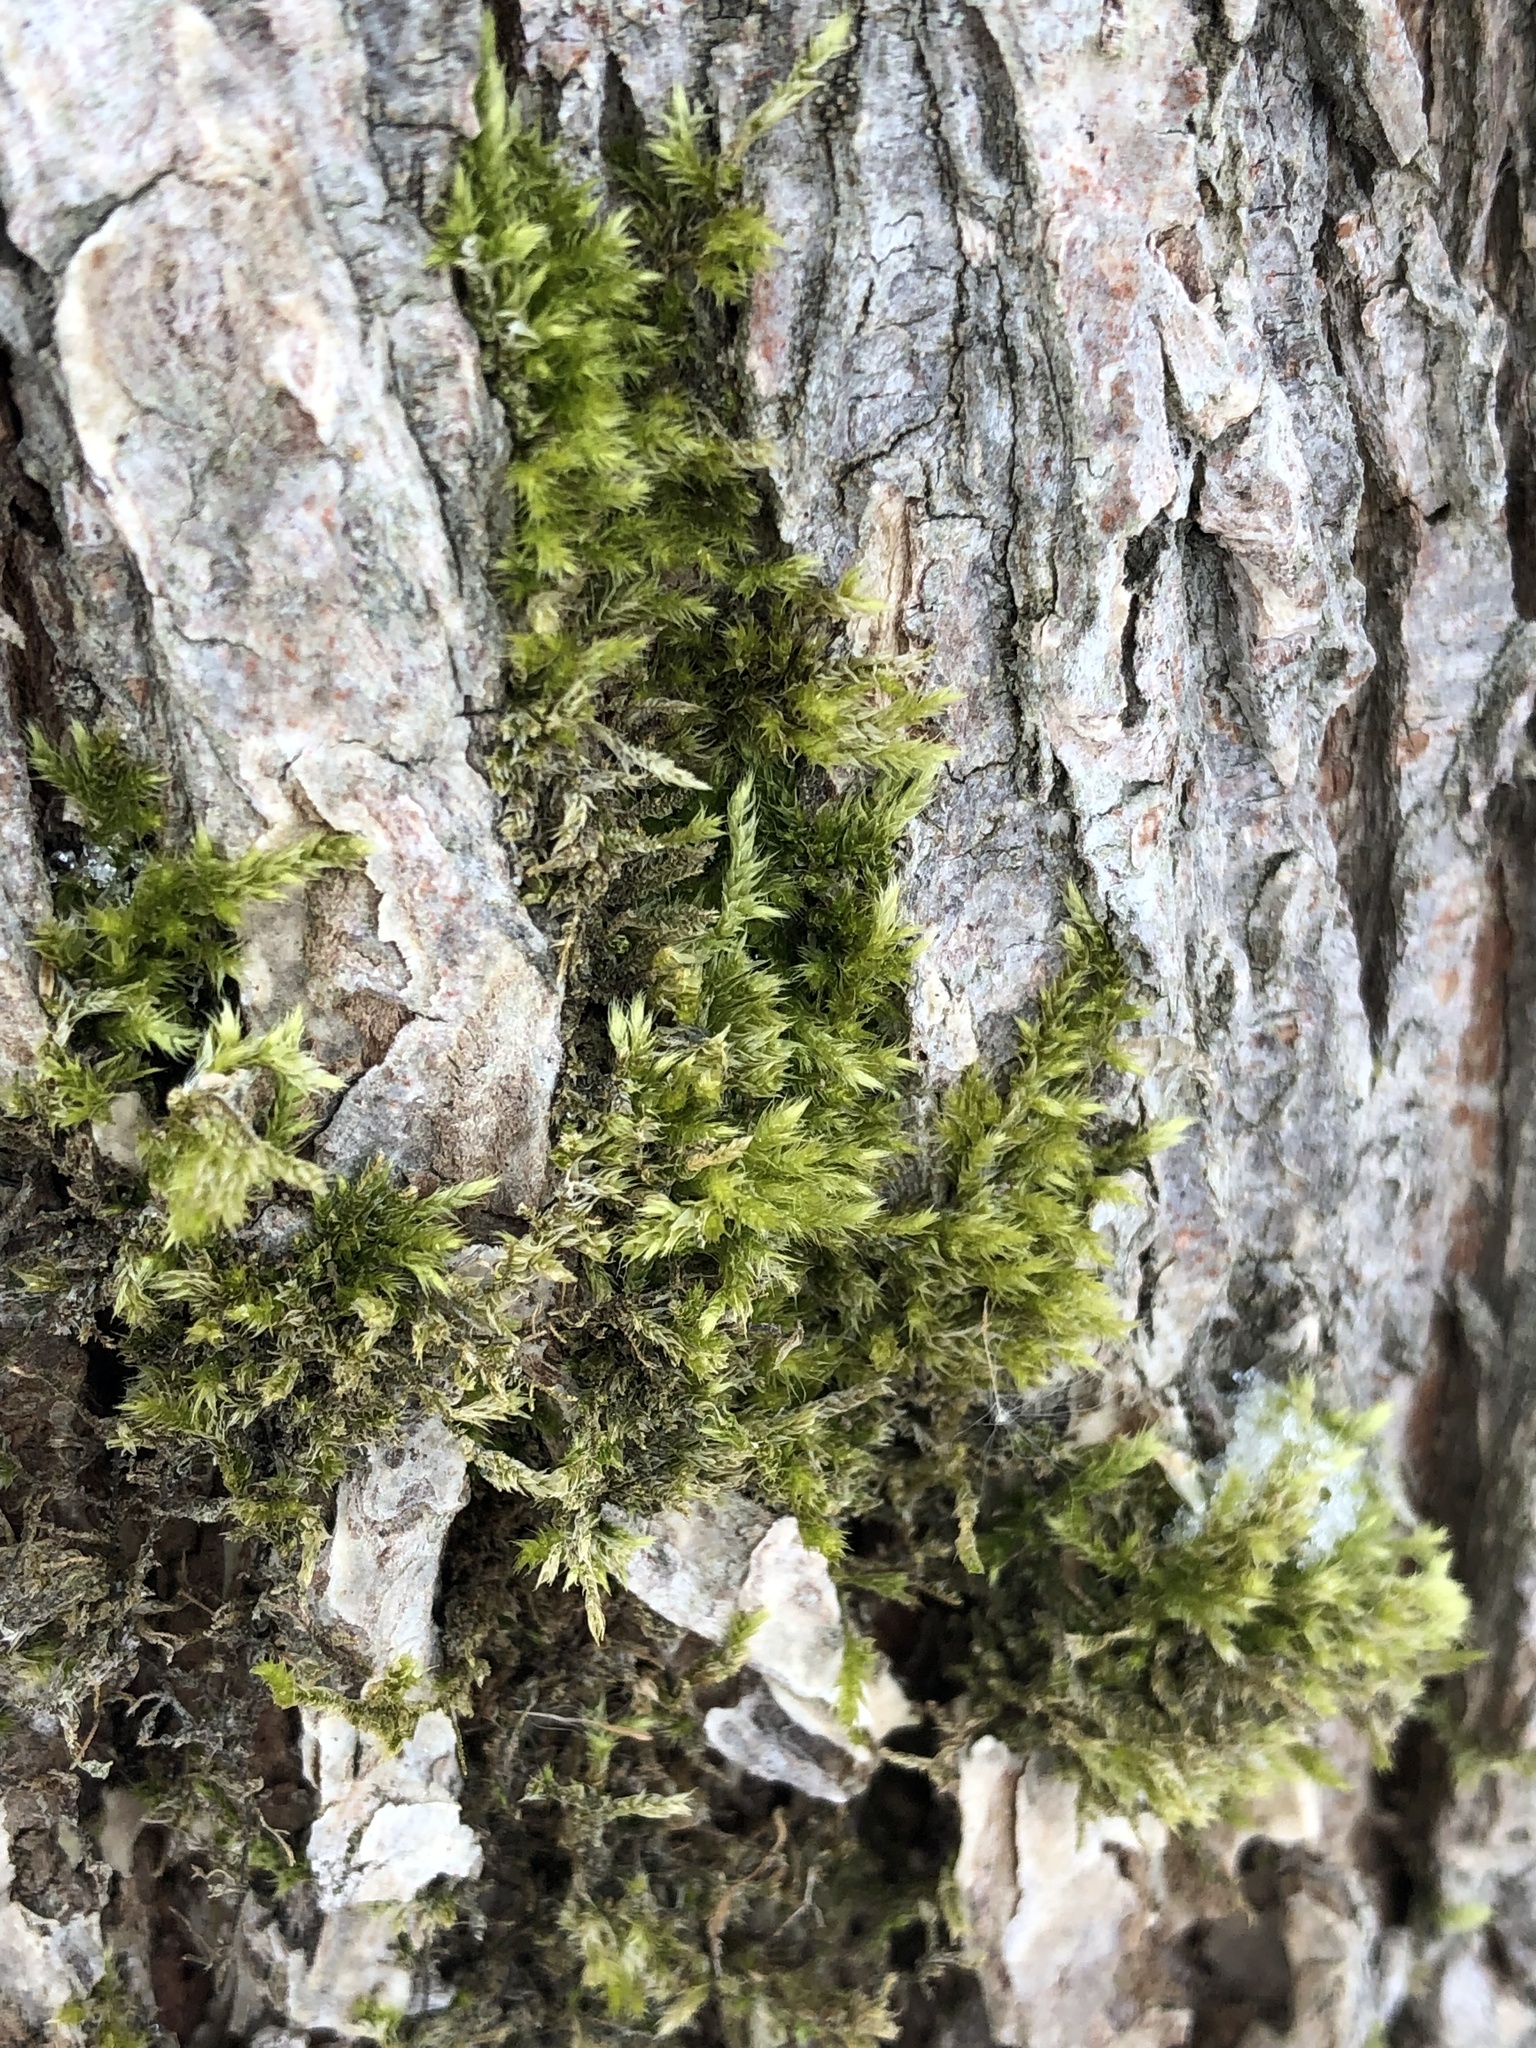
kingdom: Plantae
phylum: Bryophyta
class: Bryopsida
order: Hypnales
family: Callicladiaceae
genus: Callicladium
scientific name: Callicladium haldanianum
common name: Beautiful branch moss
